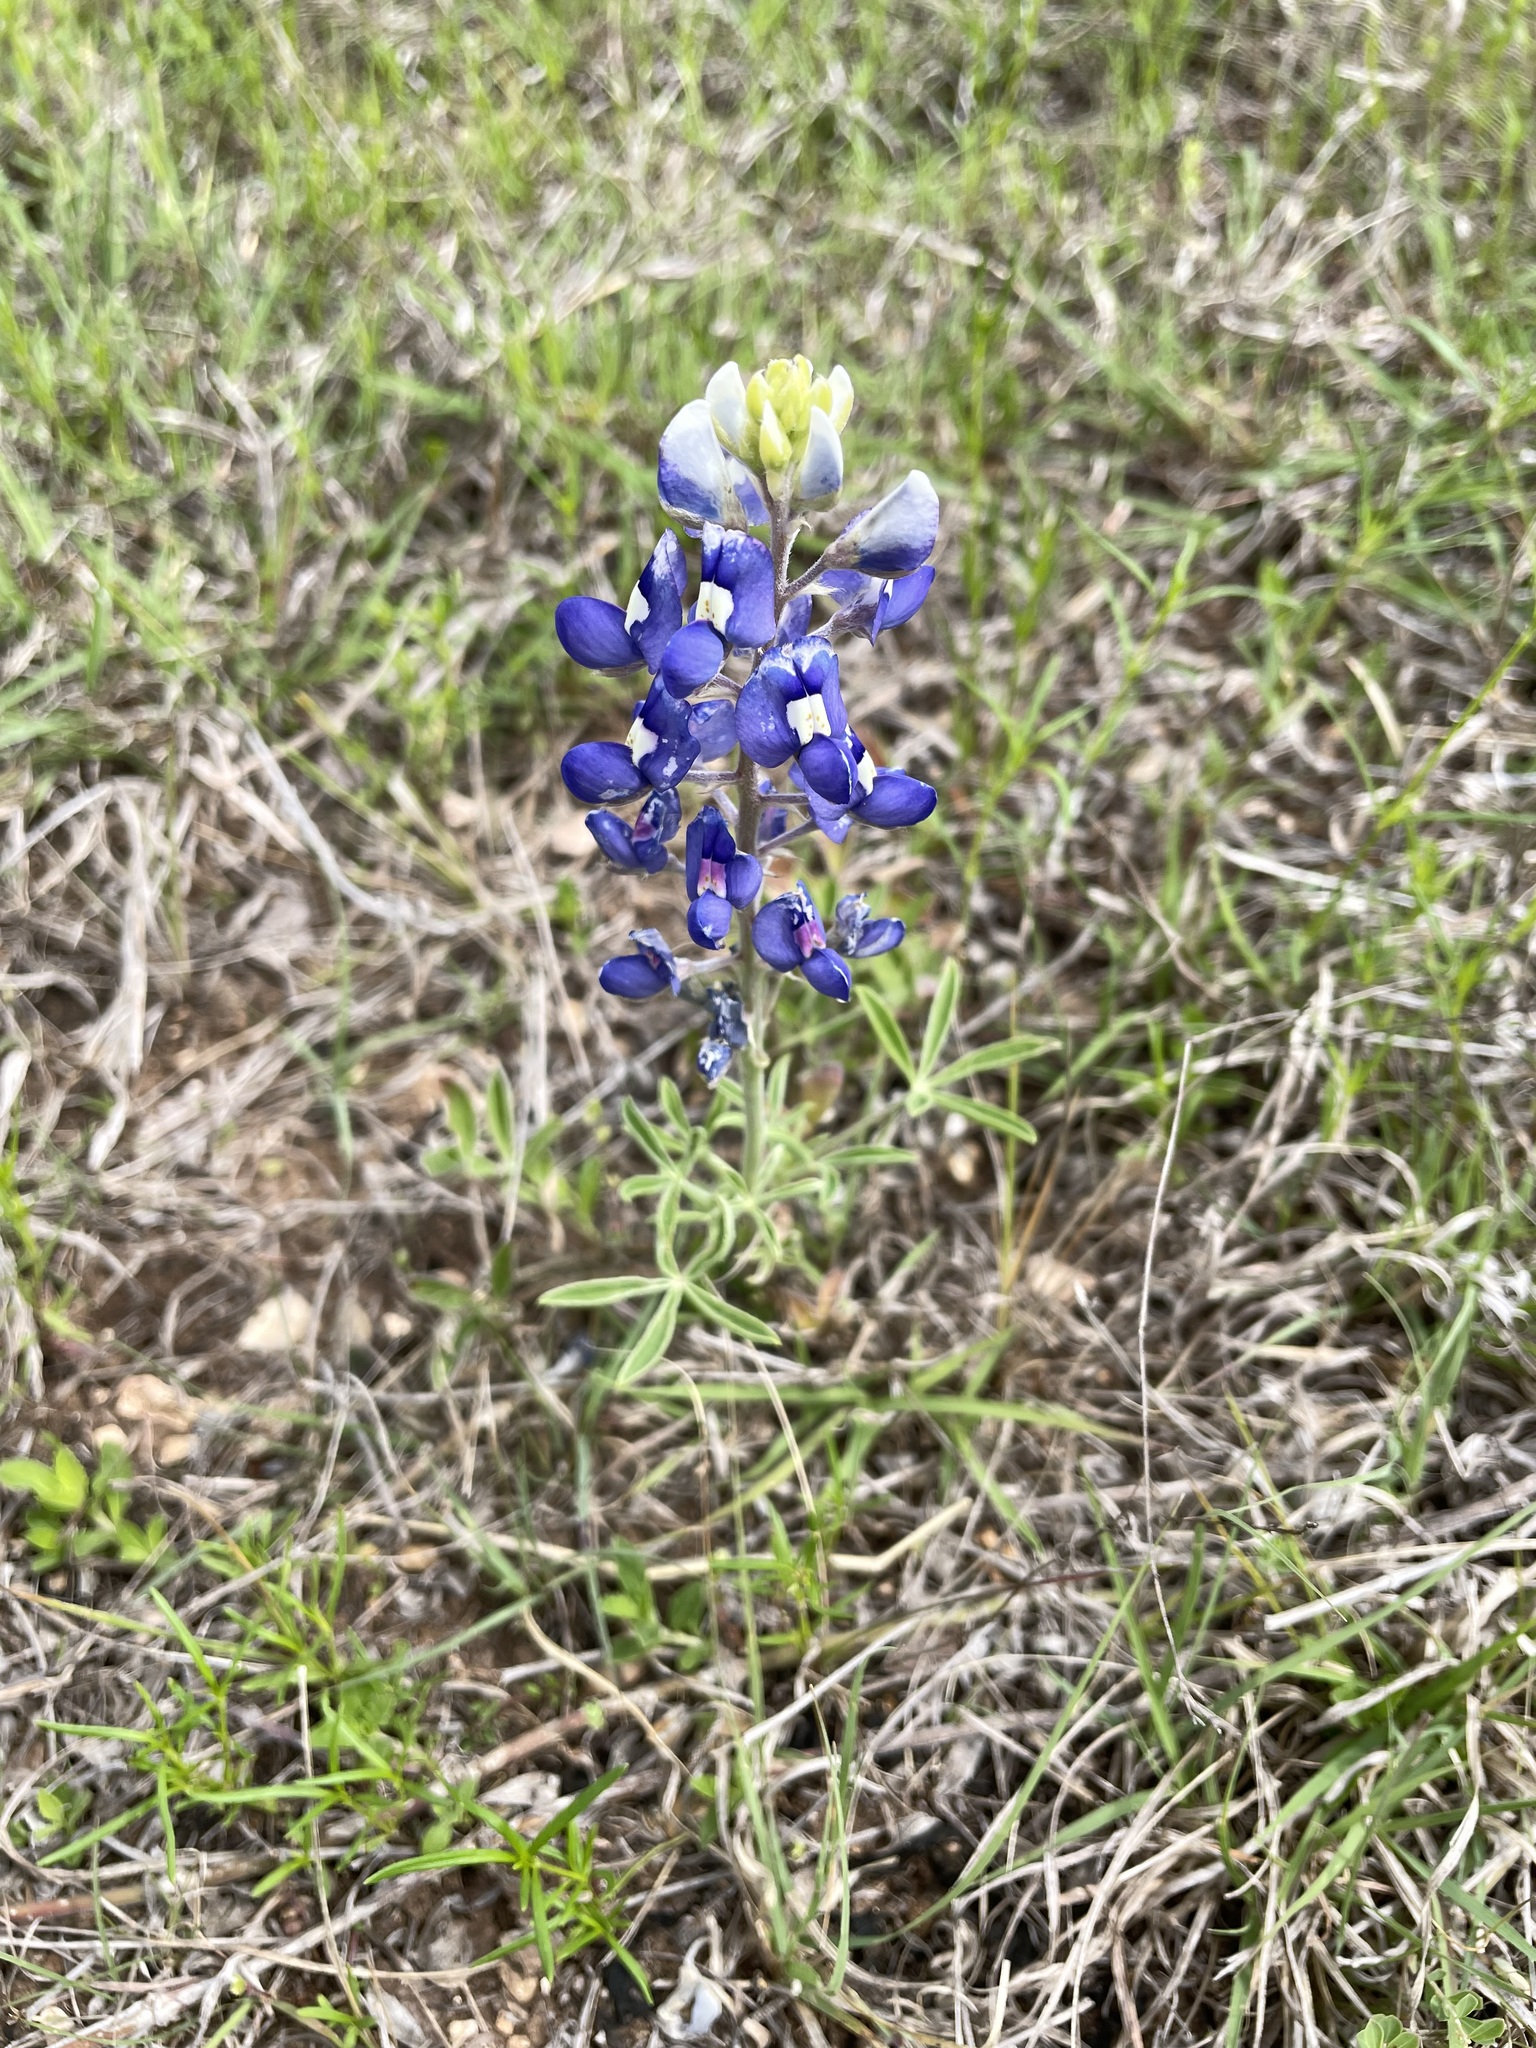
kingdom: Plantae
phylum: Tracheophyta
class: Magnoliopsida
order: Fabales
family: Fabaceae
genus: Lupinus
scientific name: Lupinus texensis
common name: Texas bluebonnet
